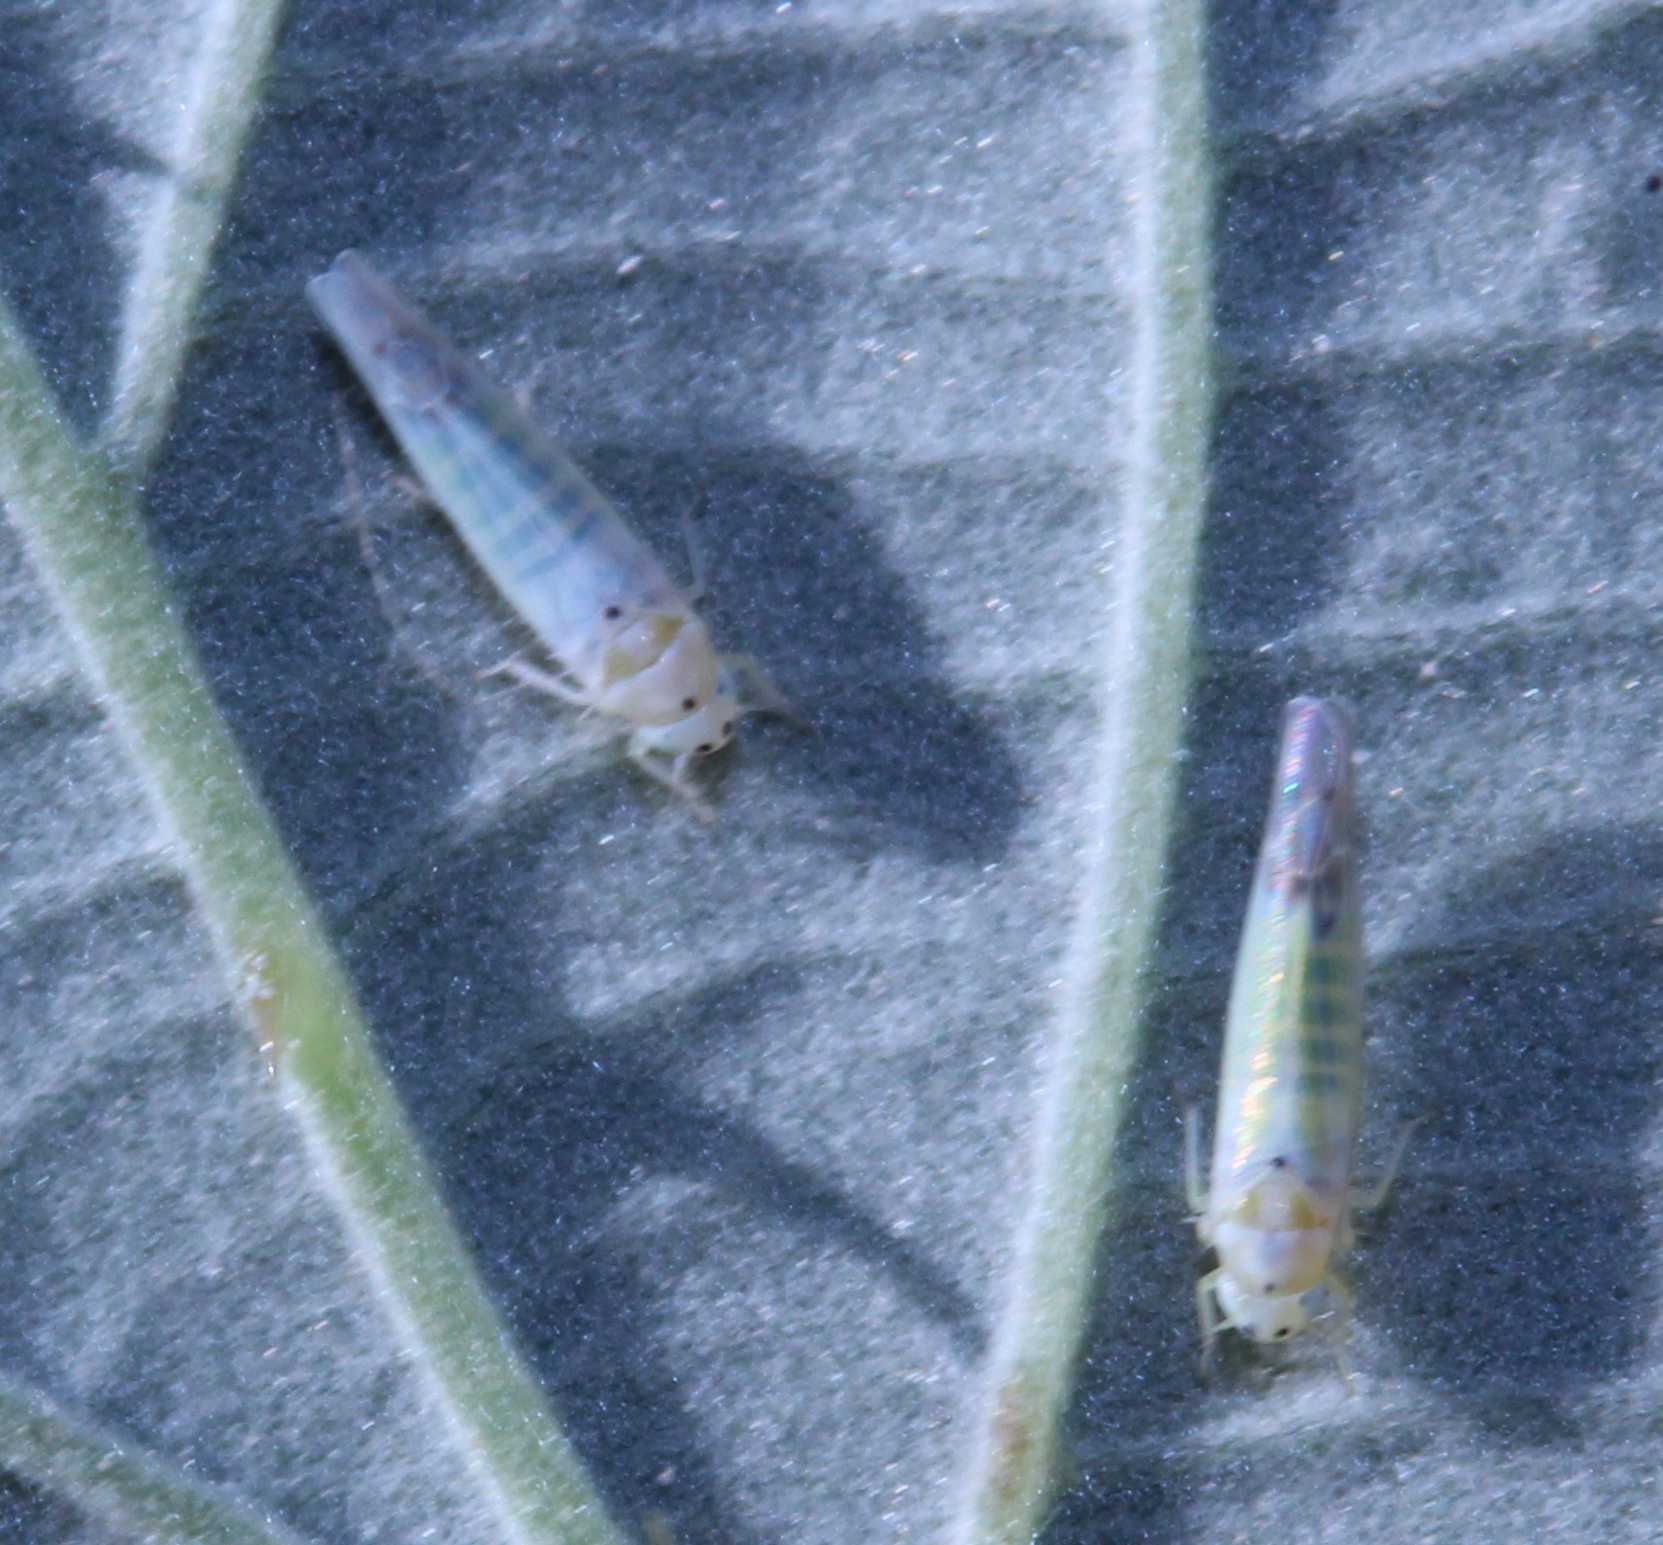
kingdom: Animalia
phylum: Arthropoda
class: Insecta
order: Hemiptera
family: Cicadellidae
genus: Ribautiana
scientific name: Ribautiana debilis
